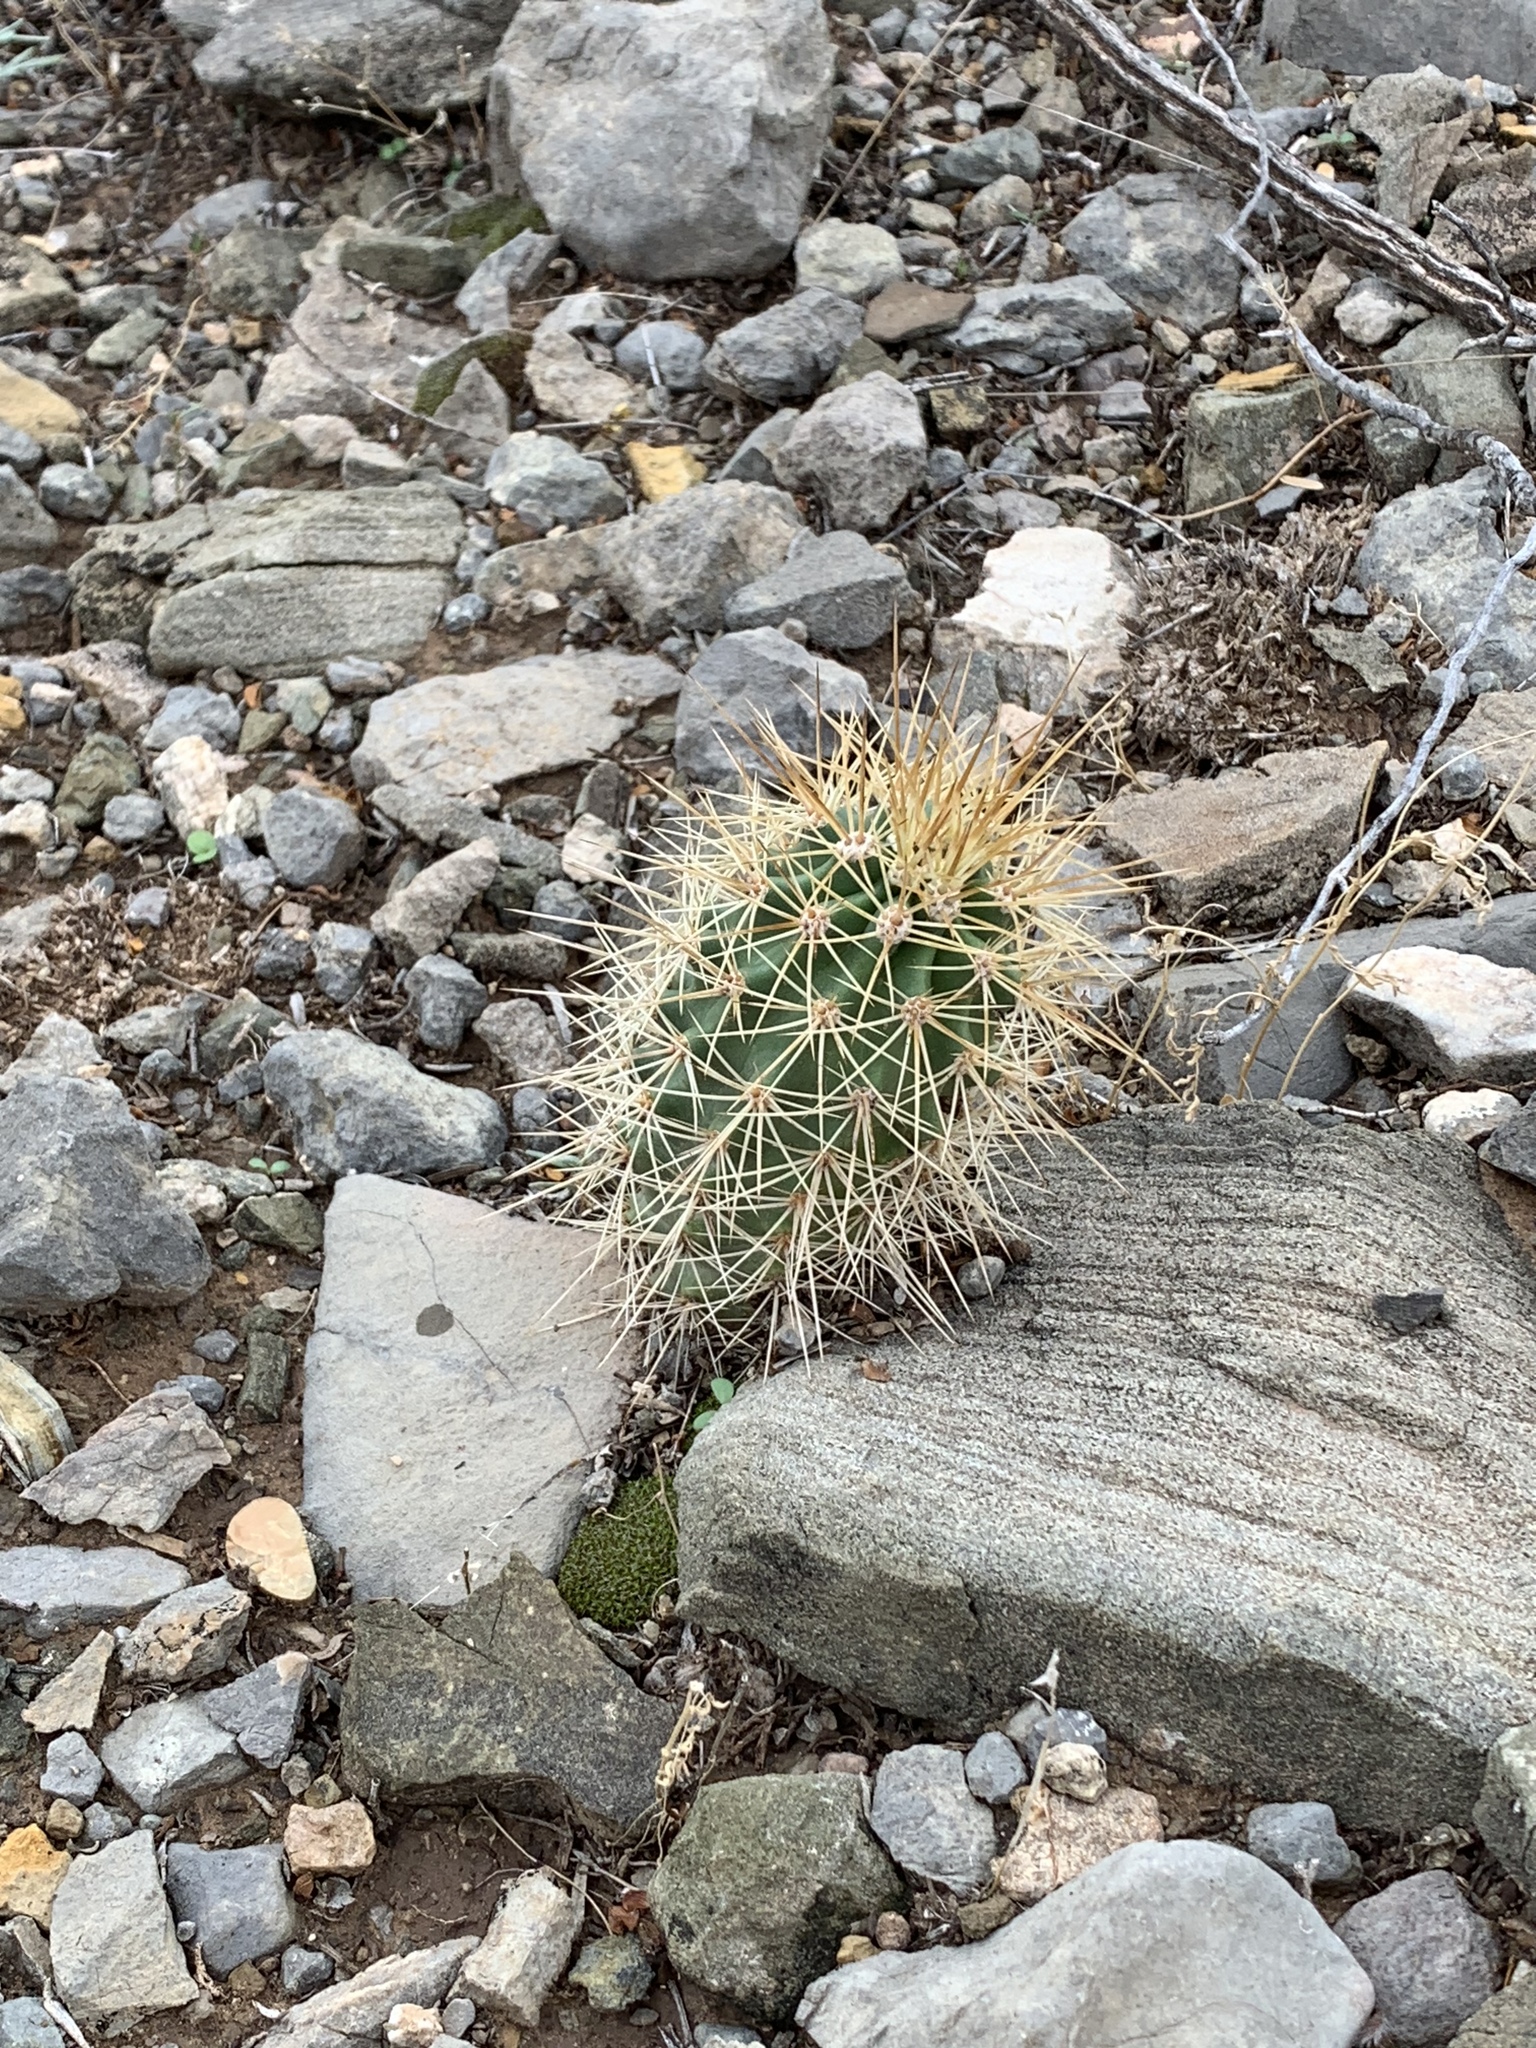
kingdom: Plantae
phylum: Tracheophyta
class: Magnoliopsida
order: Caryophyllales
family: Cactaceae
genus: Echinocereus
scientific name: Echinocereus coccineus
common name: Scarlet hedgehog cactus
